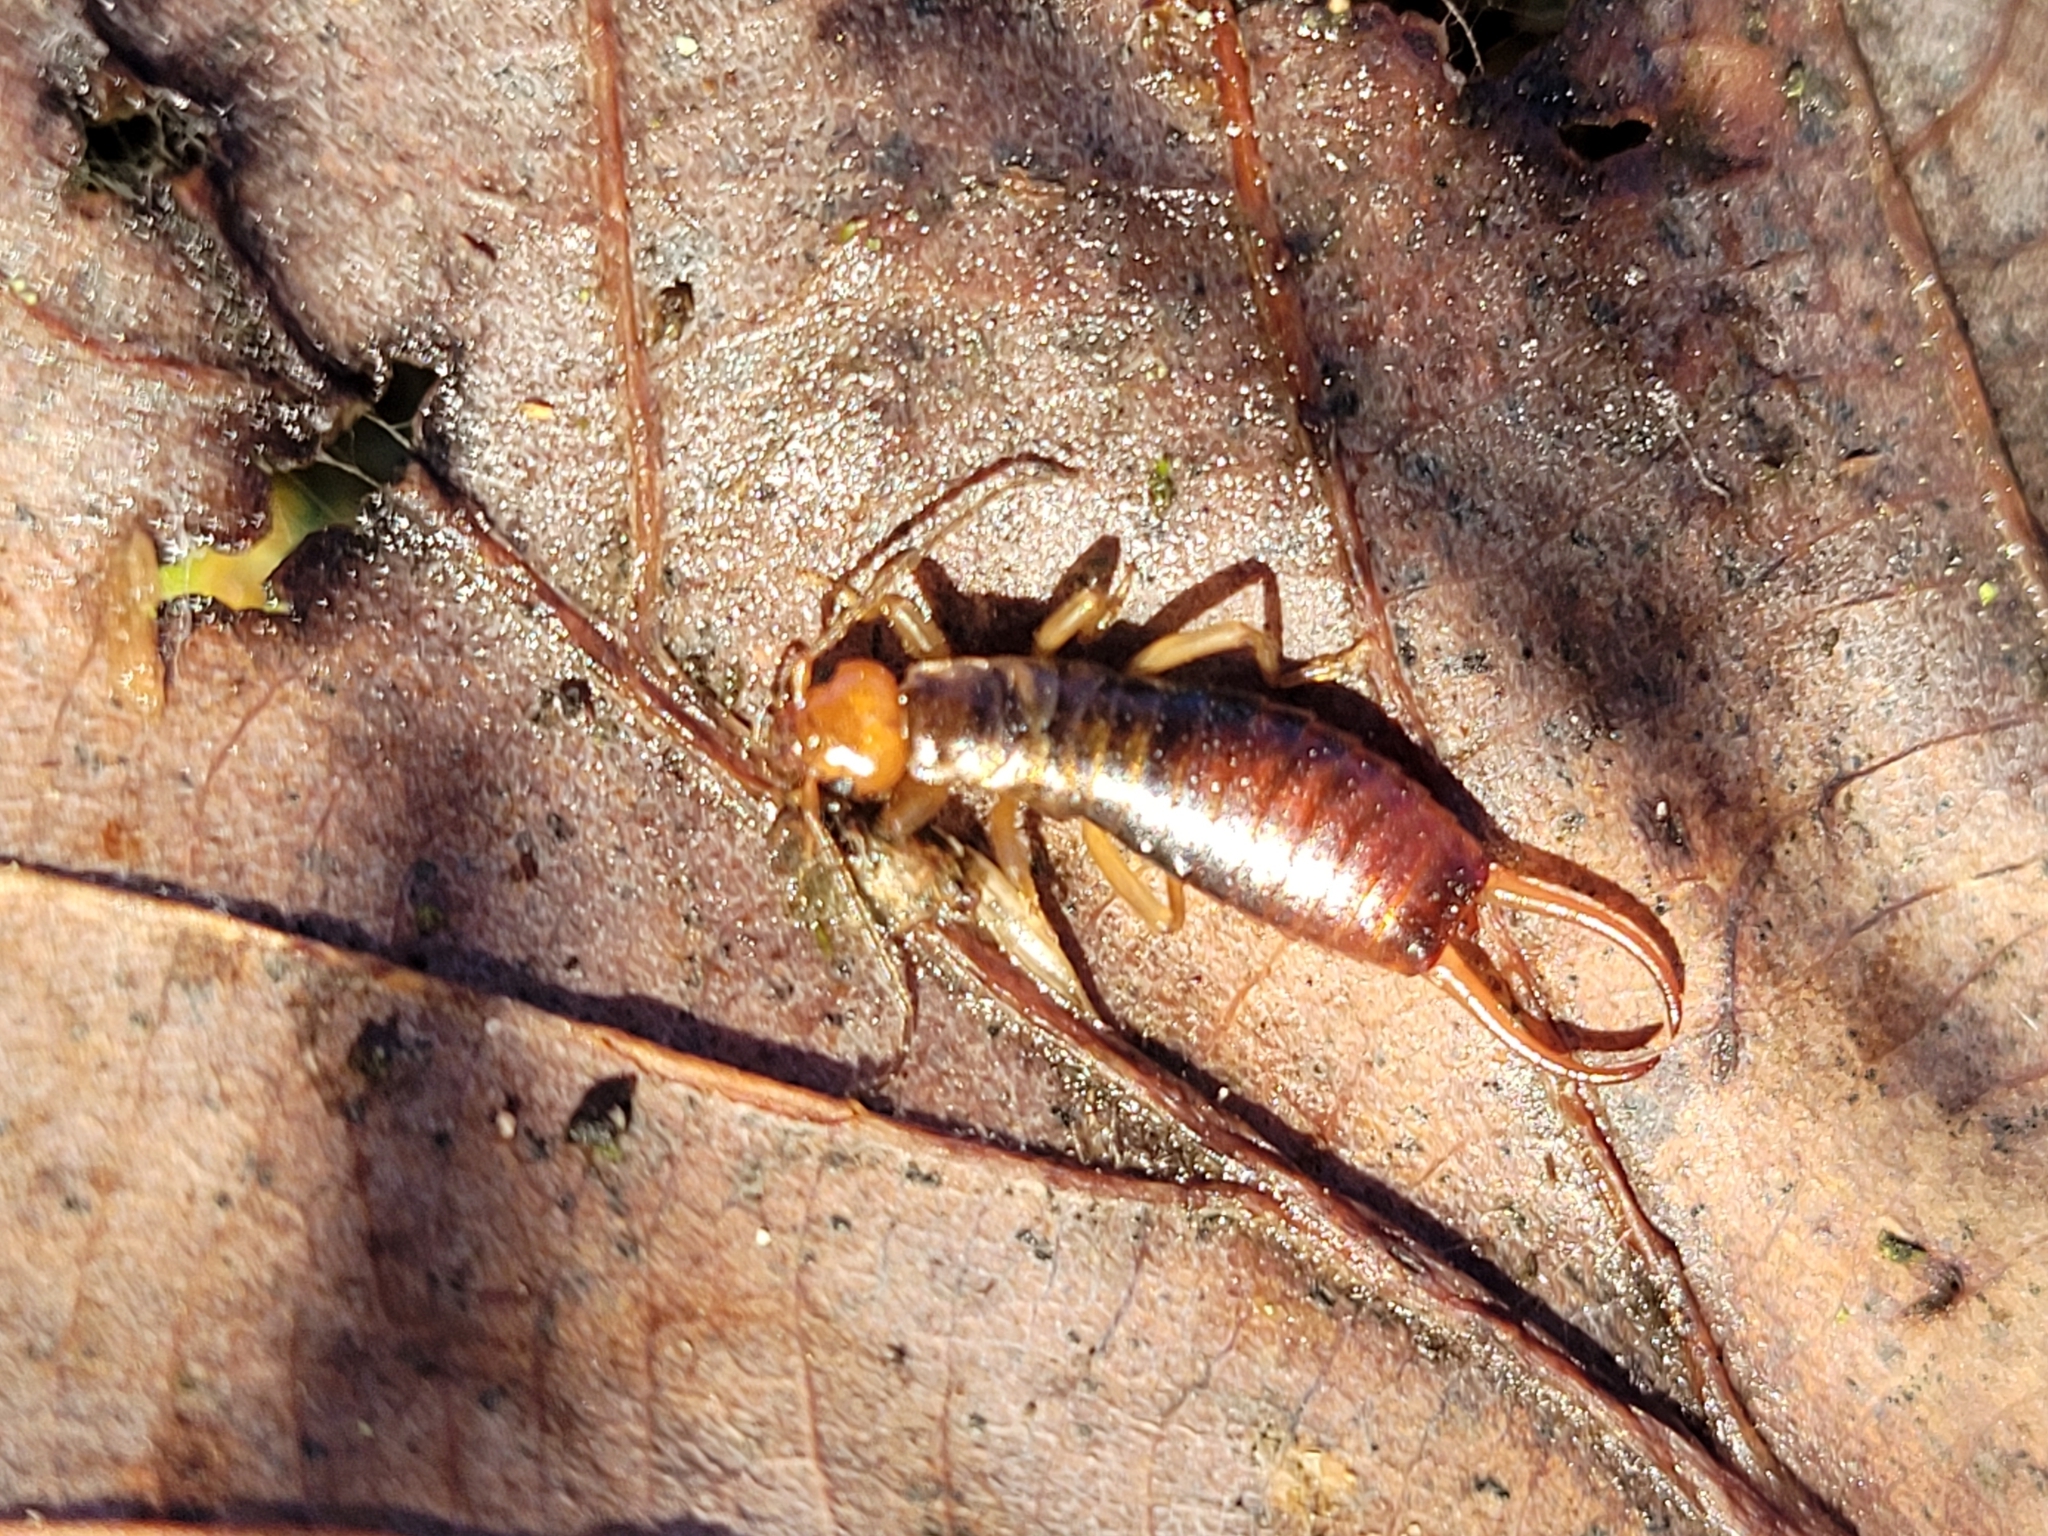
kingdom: Animalia
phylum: Arthropoda
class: Insecta
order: Dermaptera
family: Forficulidae
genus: Chelidurella
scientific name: Chelidurella acanthopygia
